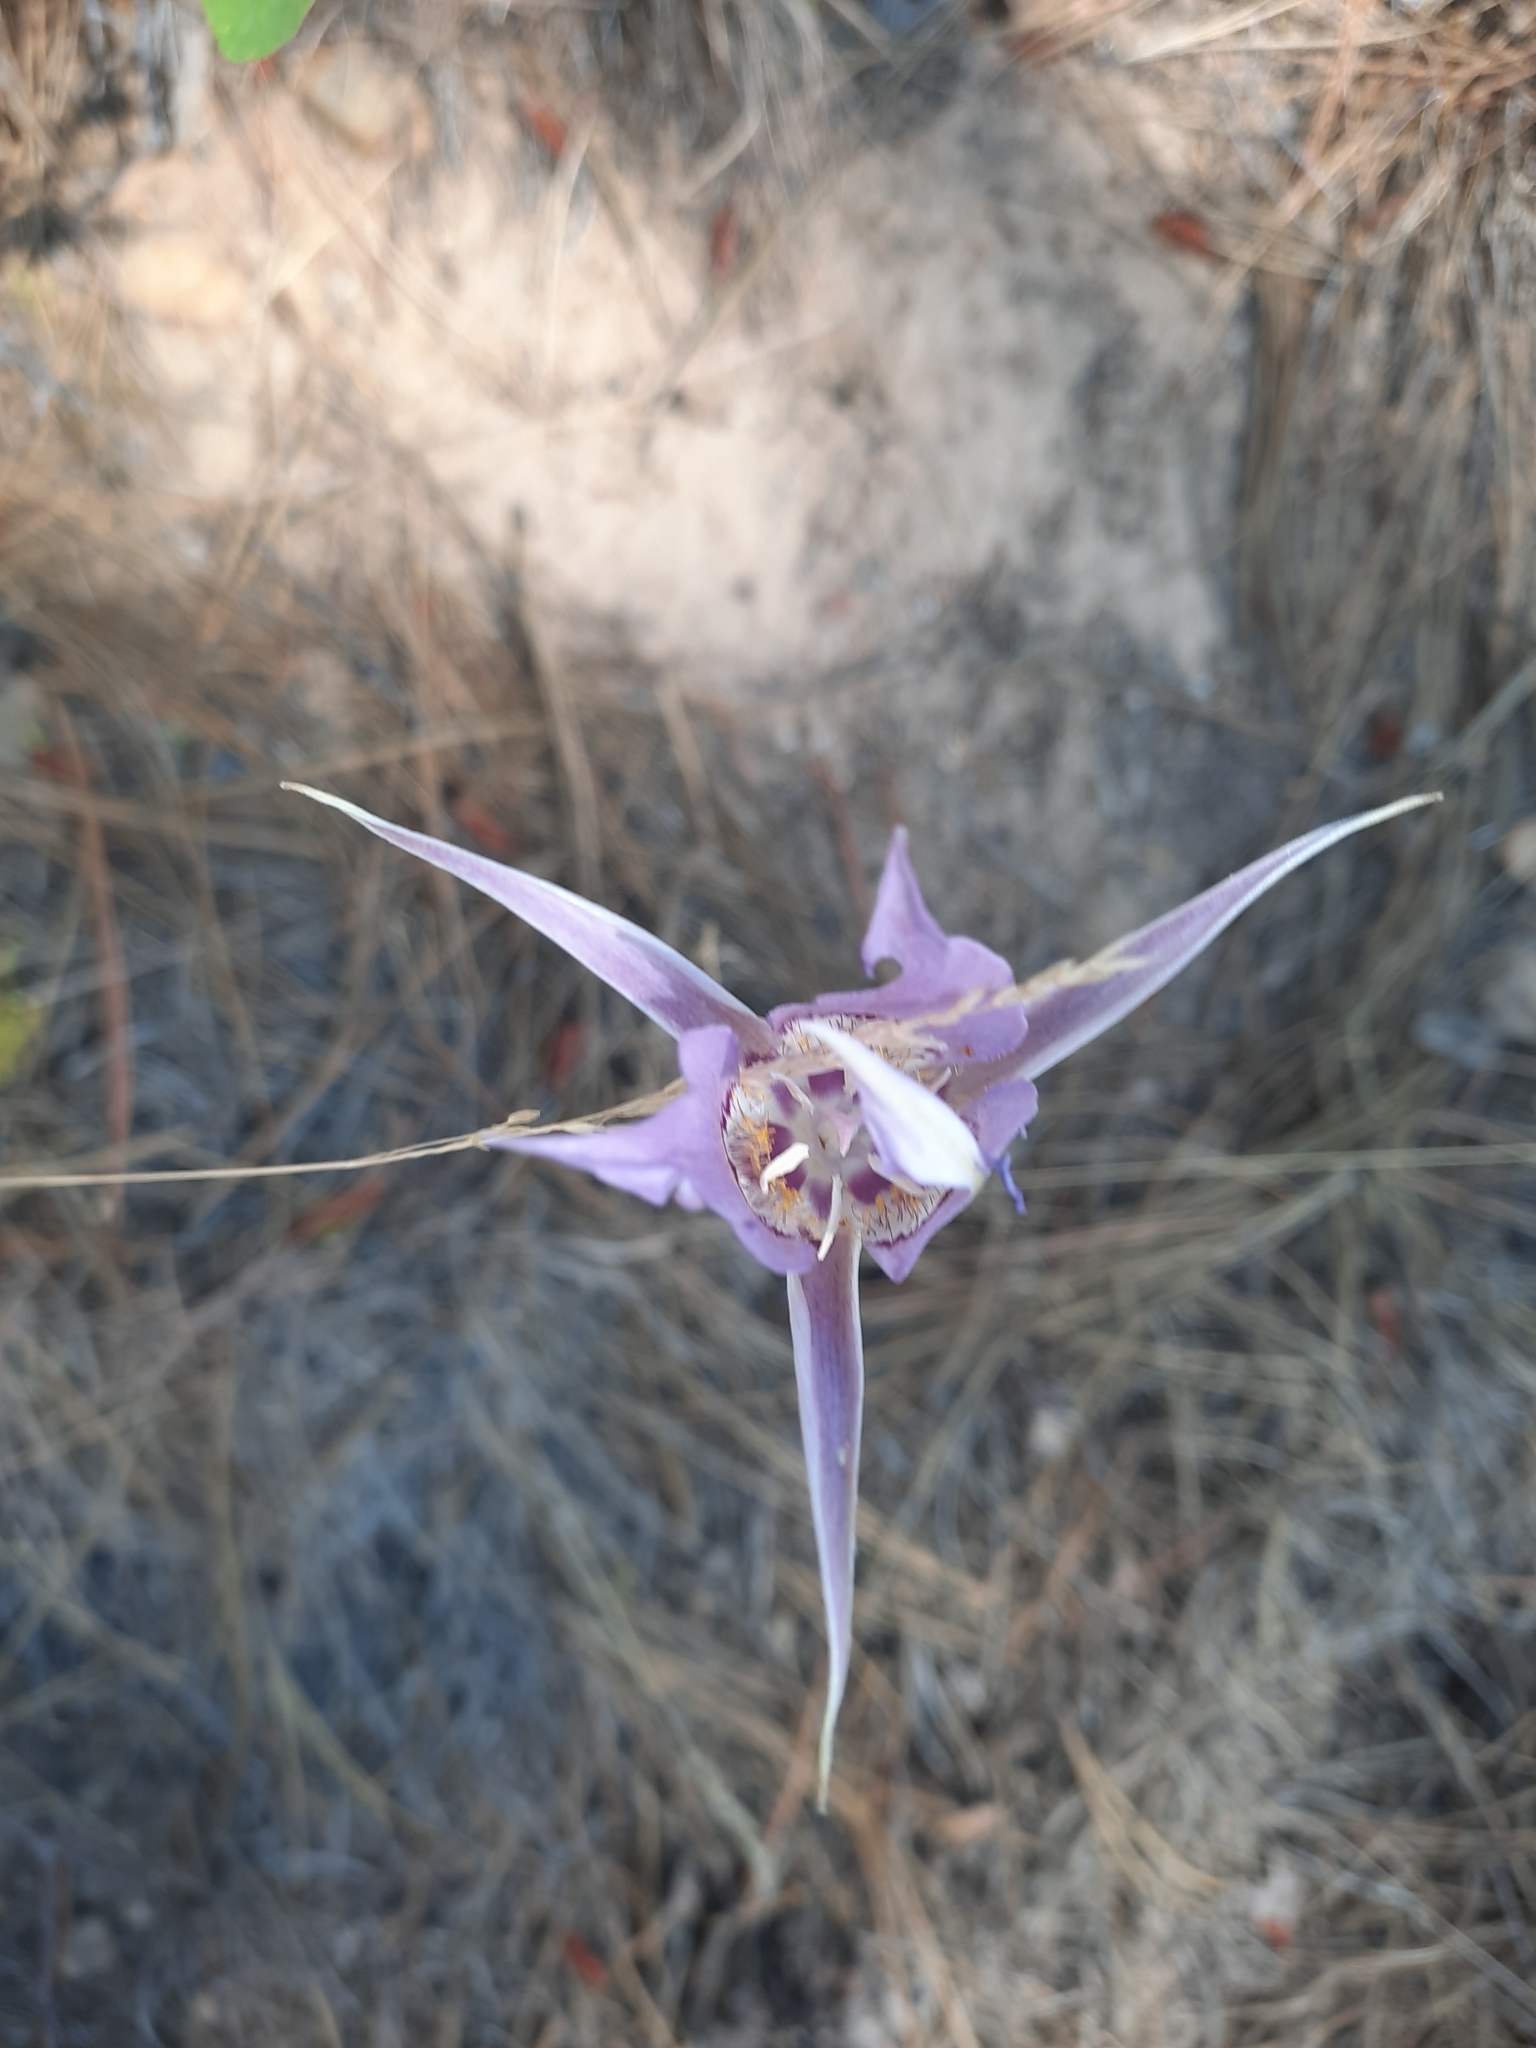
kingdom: Plantae
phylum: Tracheophyta
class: Liliopsida
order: Liliales
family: Liliaceae
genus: Calochortus
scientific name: Calochortus macrocarpus
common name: Green-band mariposa lily
